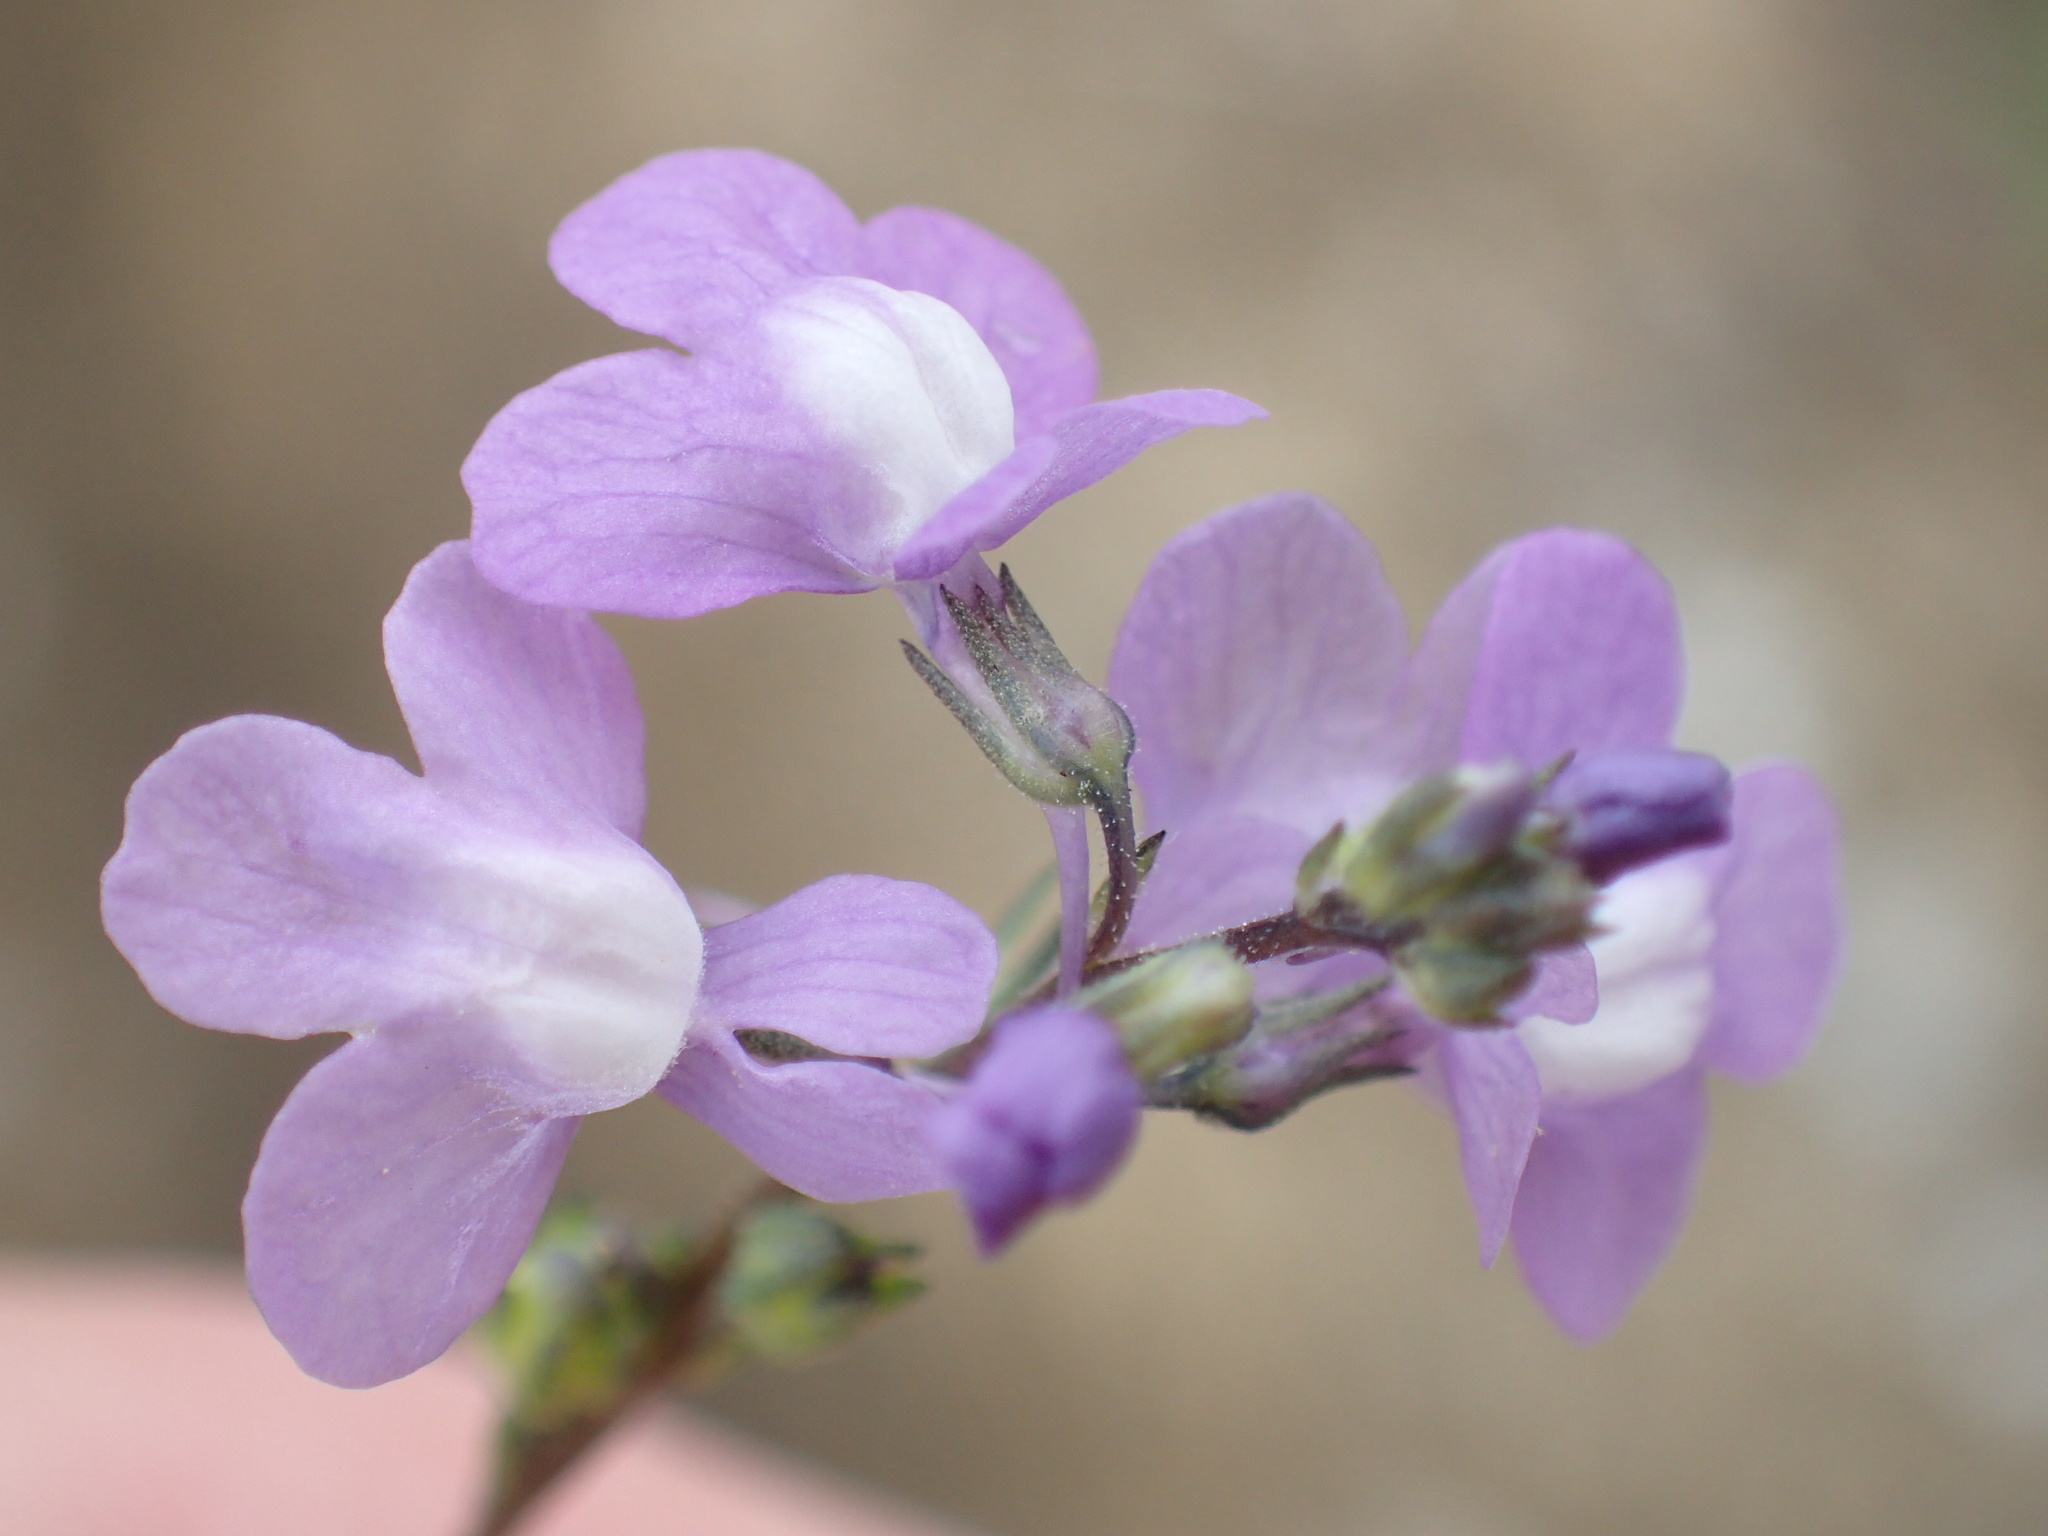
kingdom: Plantae
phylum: Tracheophyta
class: Magnoliopsida
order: Lamiales
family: Plantaginaceae
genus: Nuttallanthus
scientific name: Nuttallanthus canadensis
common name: Blue toadflax
